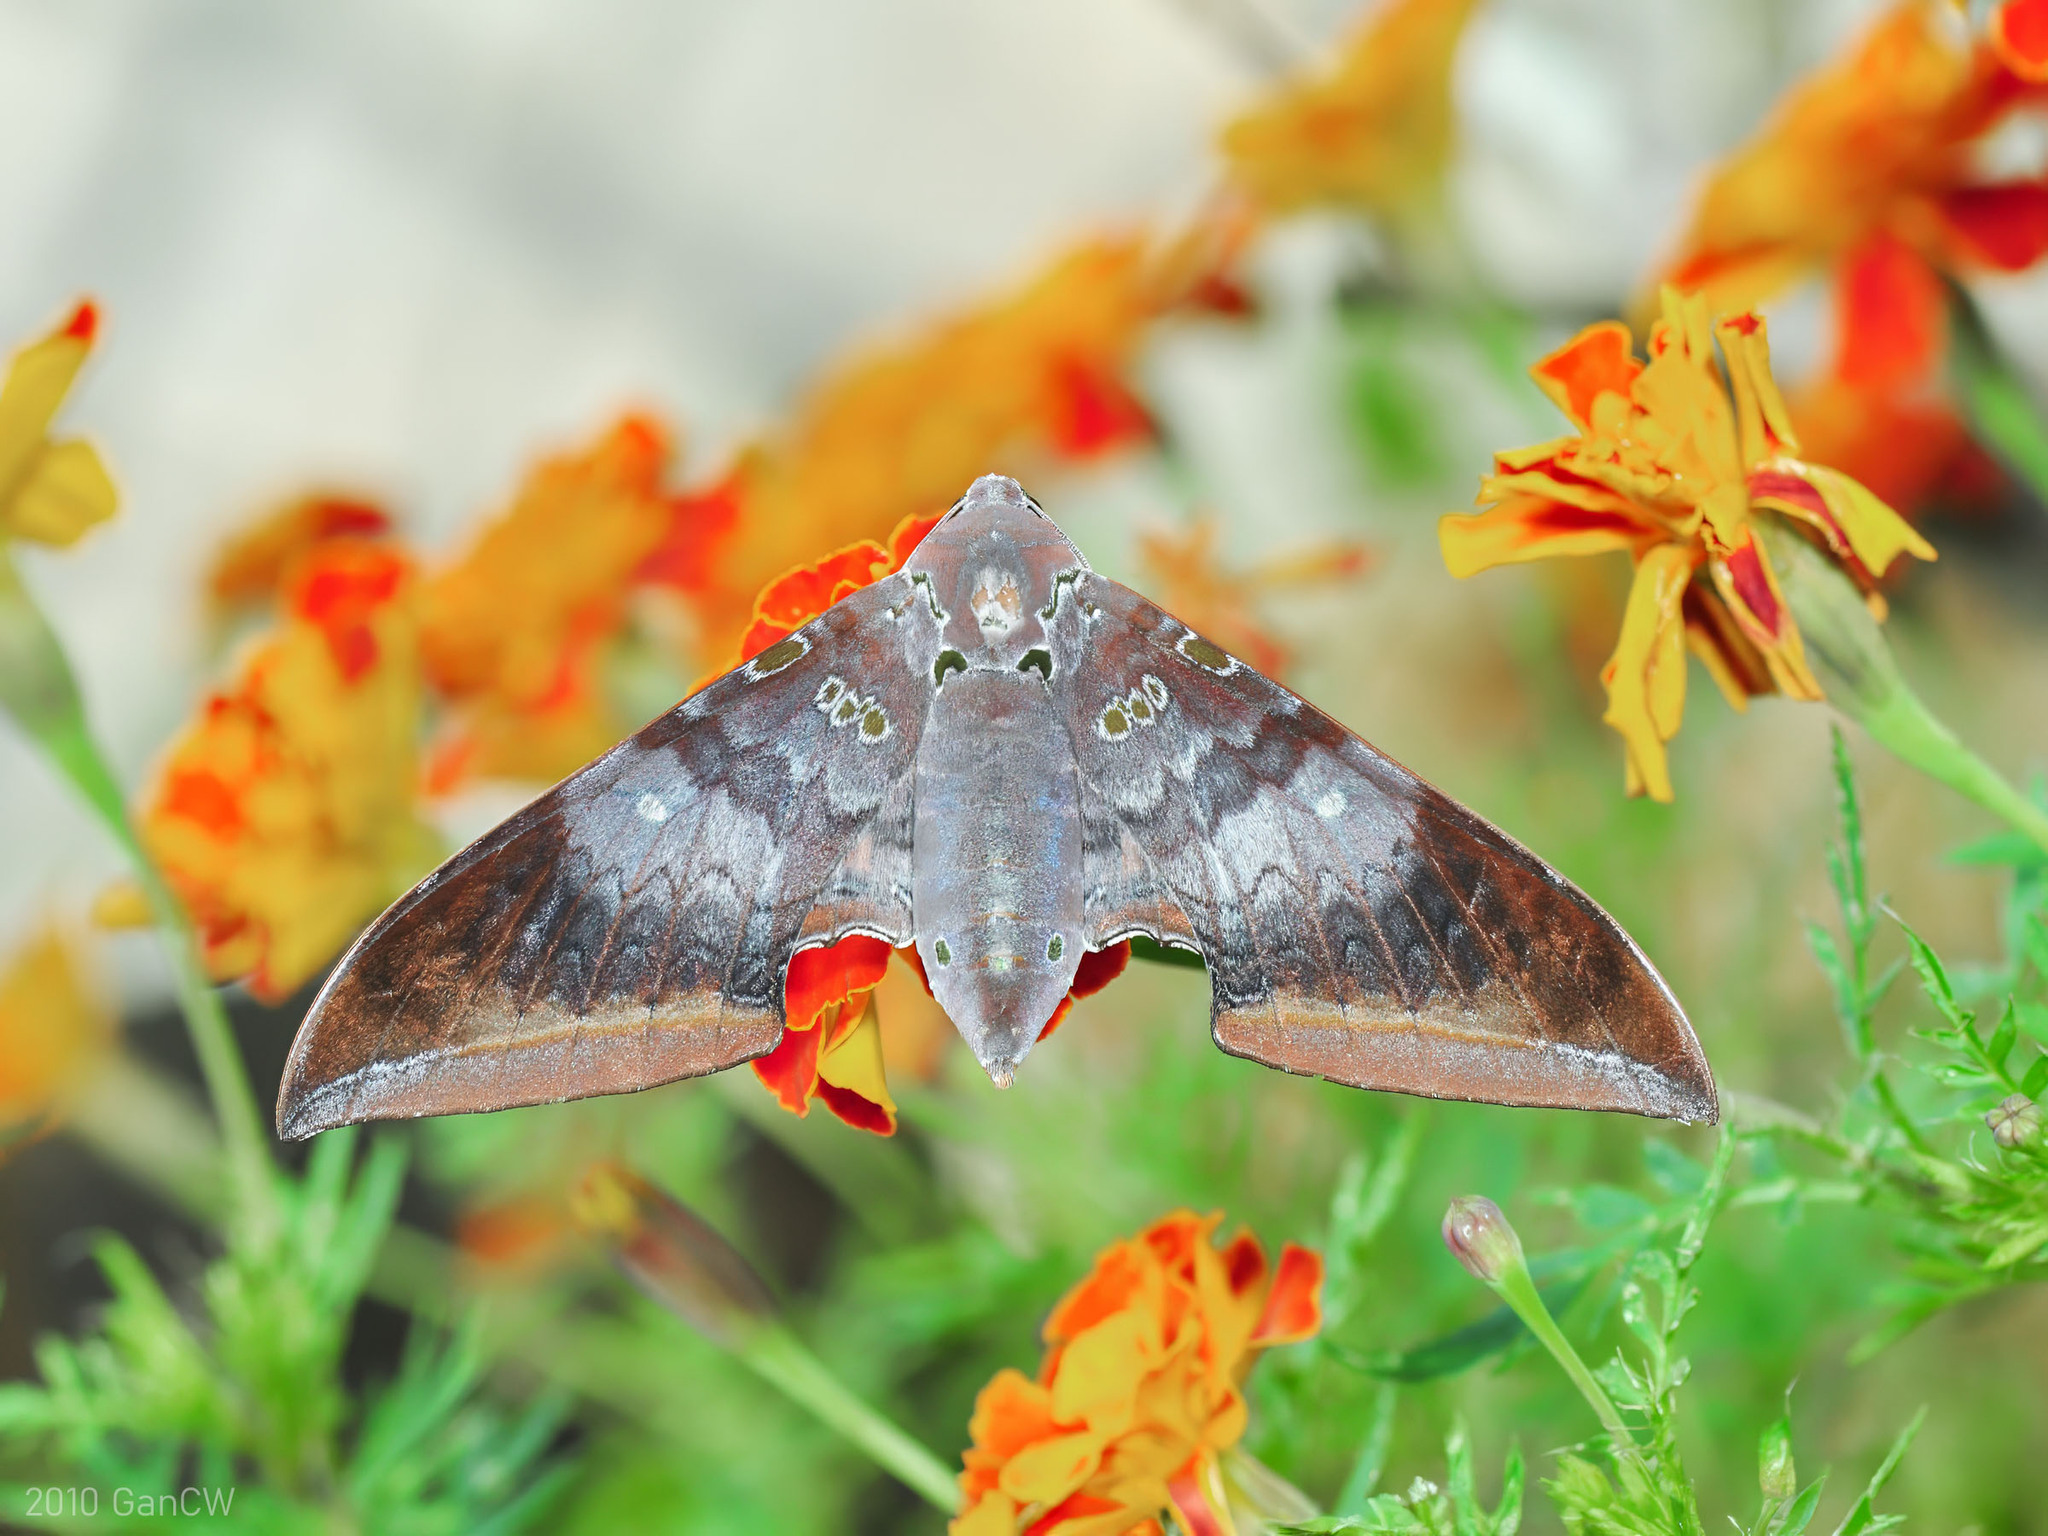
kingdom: Animalia
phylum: Arthropoda
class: Insecta
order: Lepidoptera
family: Sphingidae
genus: Ambulyx
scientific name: Ambulyx moorei
